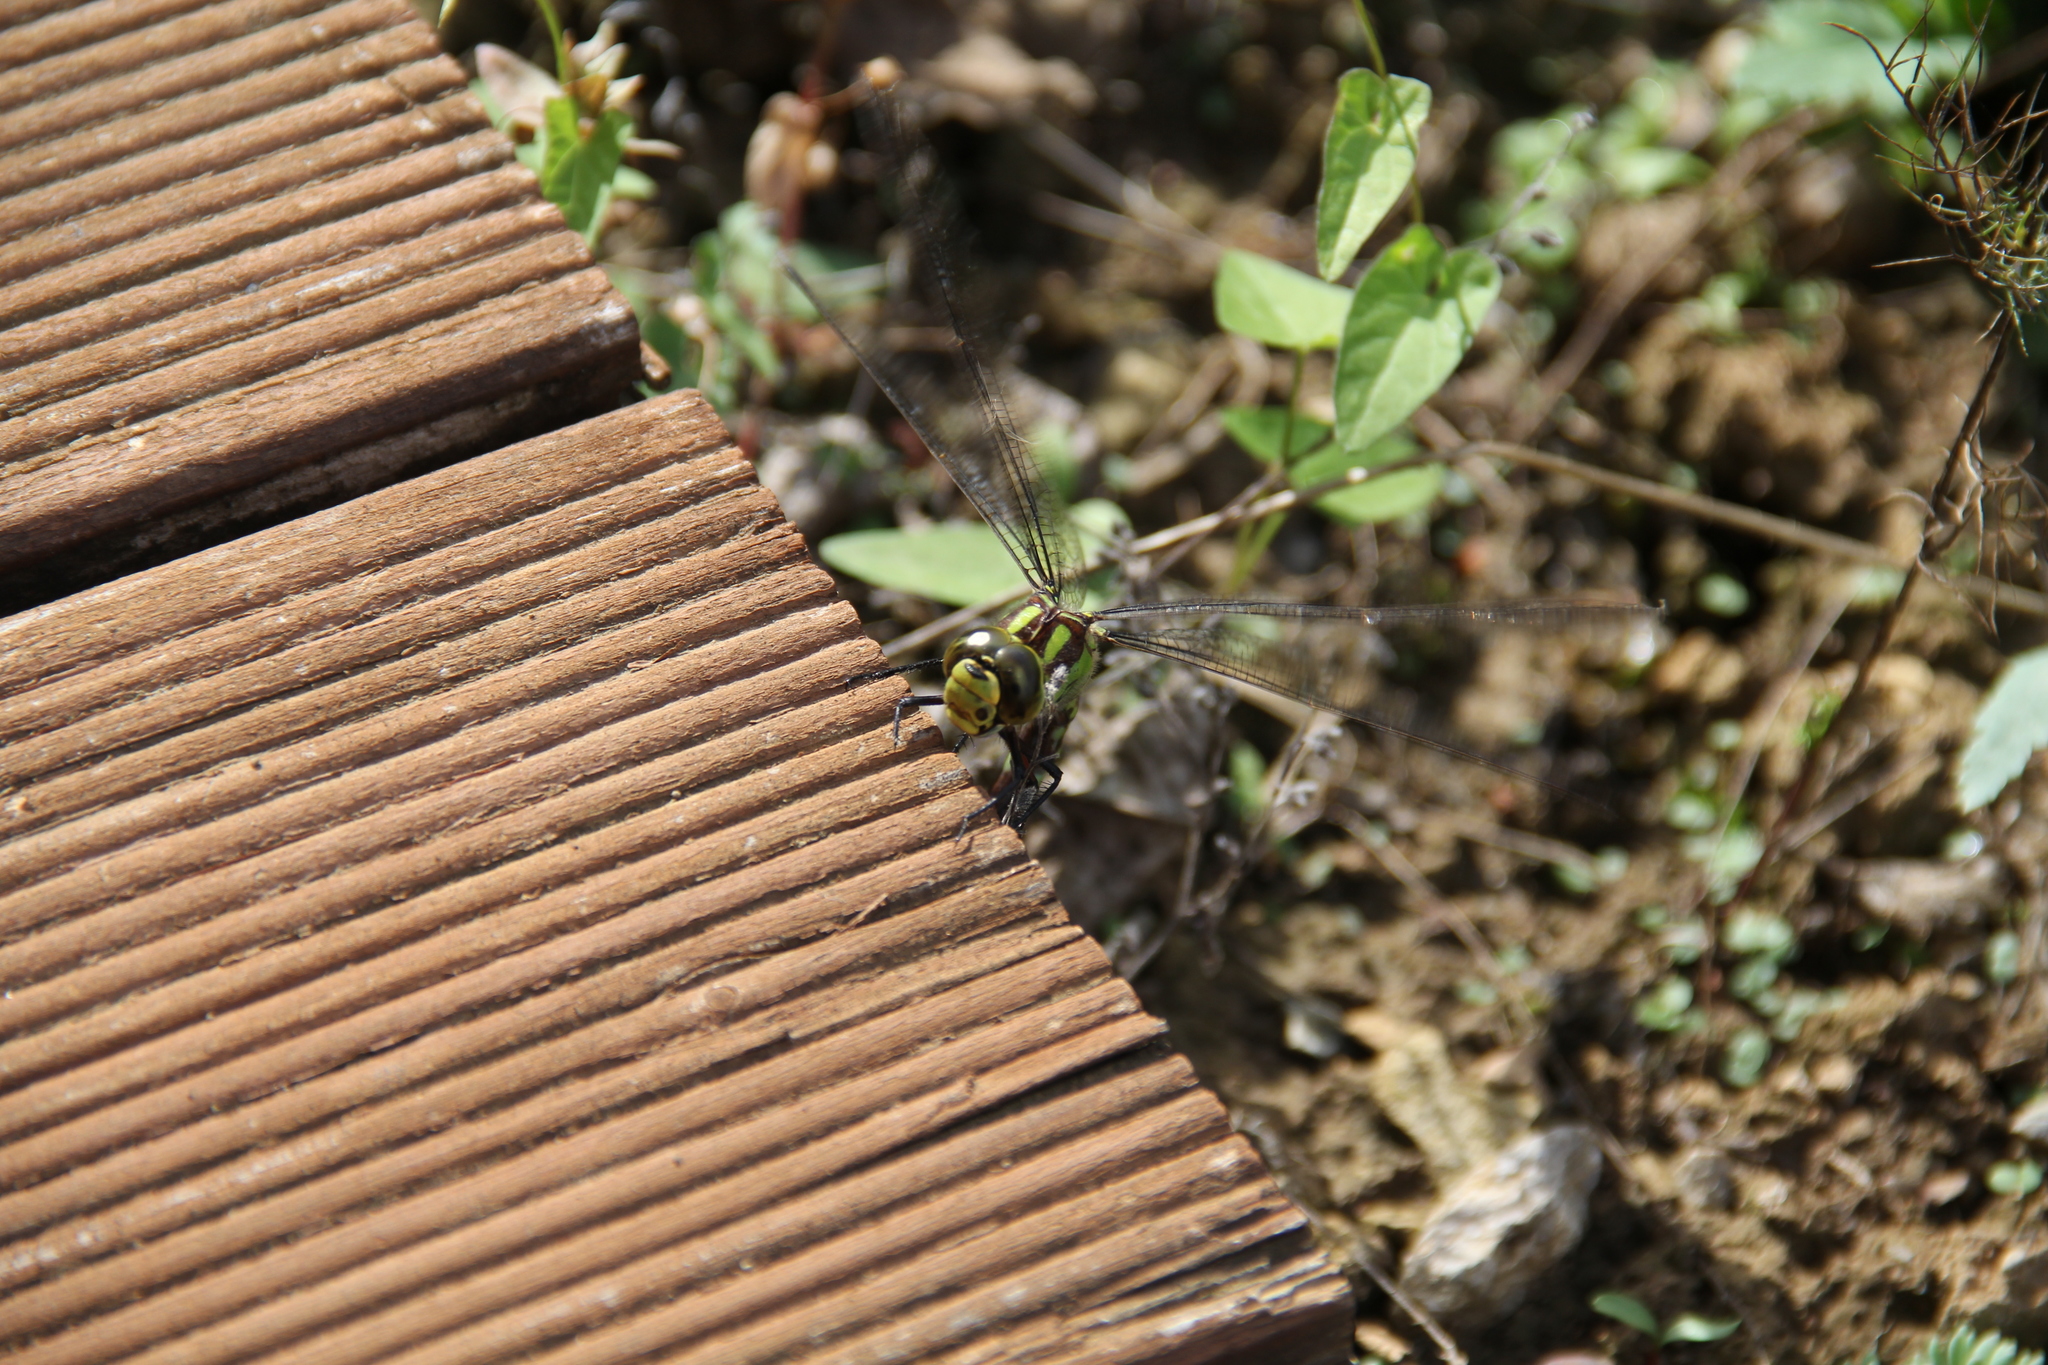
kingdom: Animalia
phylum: Arthropoda
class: Insecta
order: Odonata
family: Aeshnidae
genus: Aeshna
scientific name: Aeshna cyanea
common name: Southern hawker
